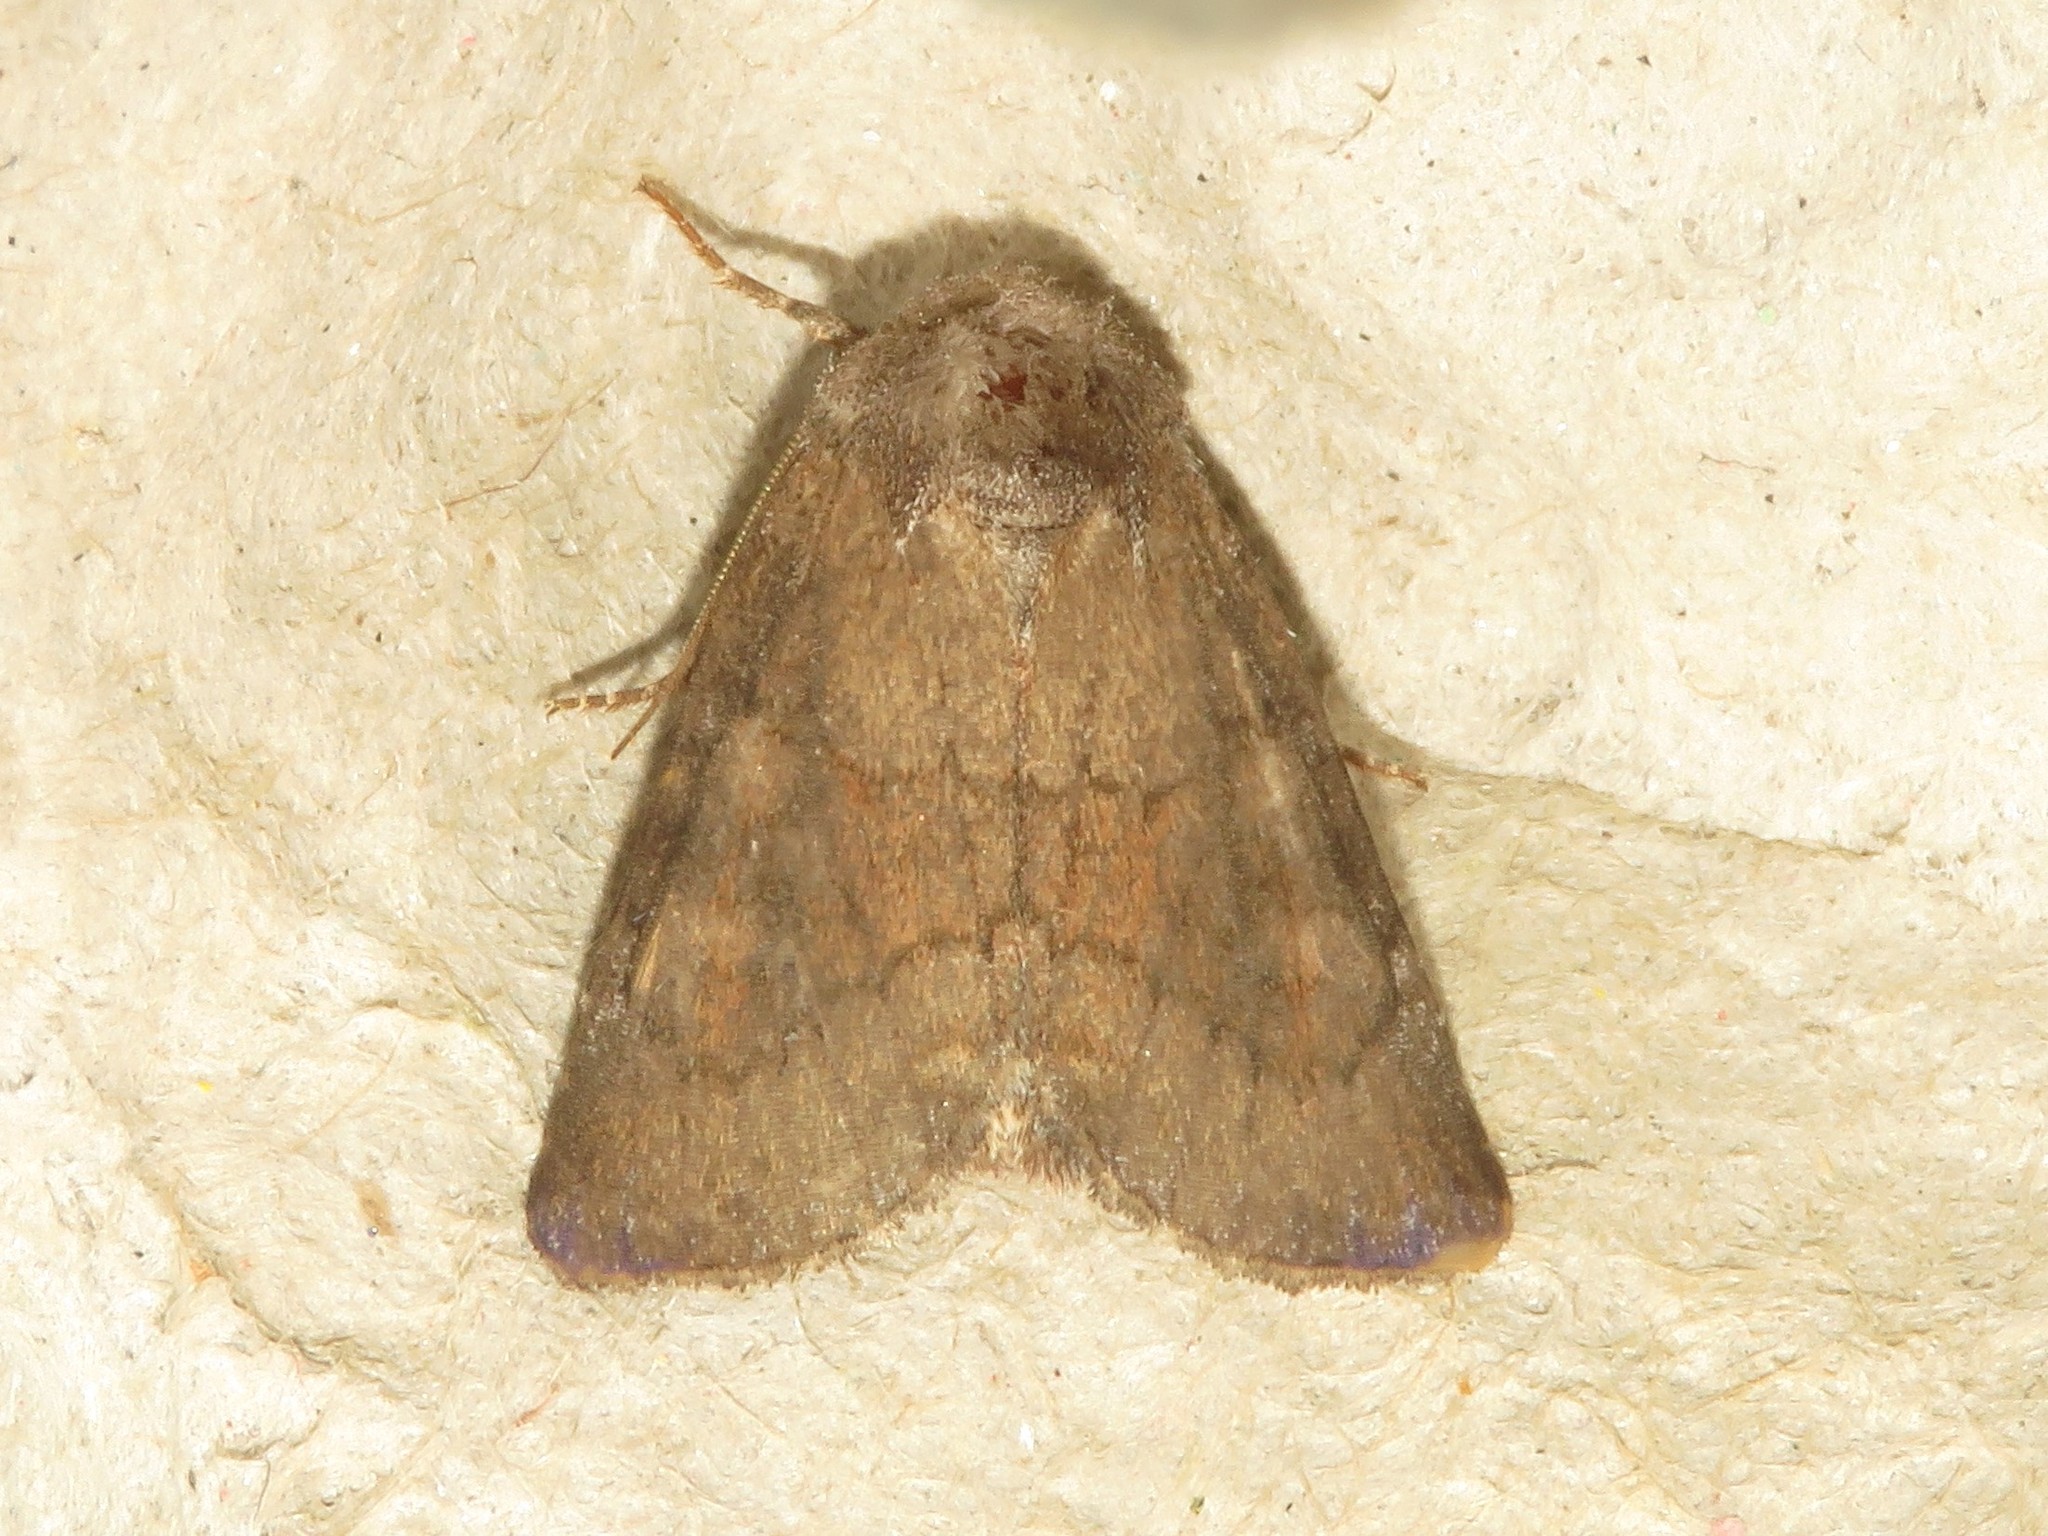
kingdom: Animalia
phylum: Arthropoda
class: Insecta
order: Lepidoptera
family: Noctuidae
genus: Tricholita
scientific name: Tricholita signata
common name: Signate quaker
